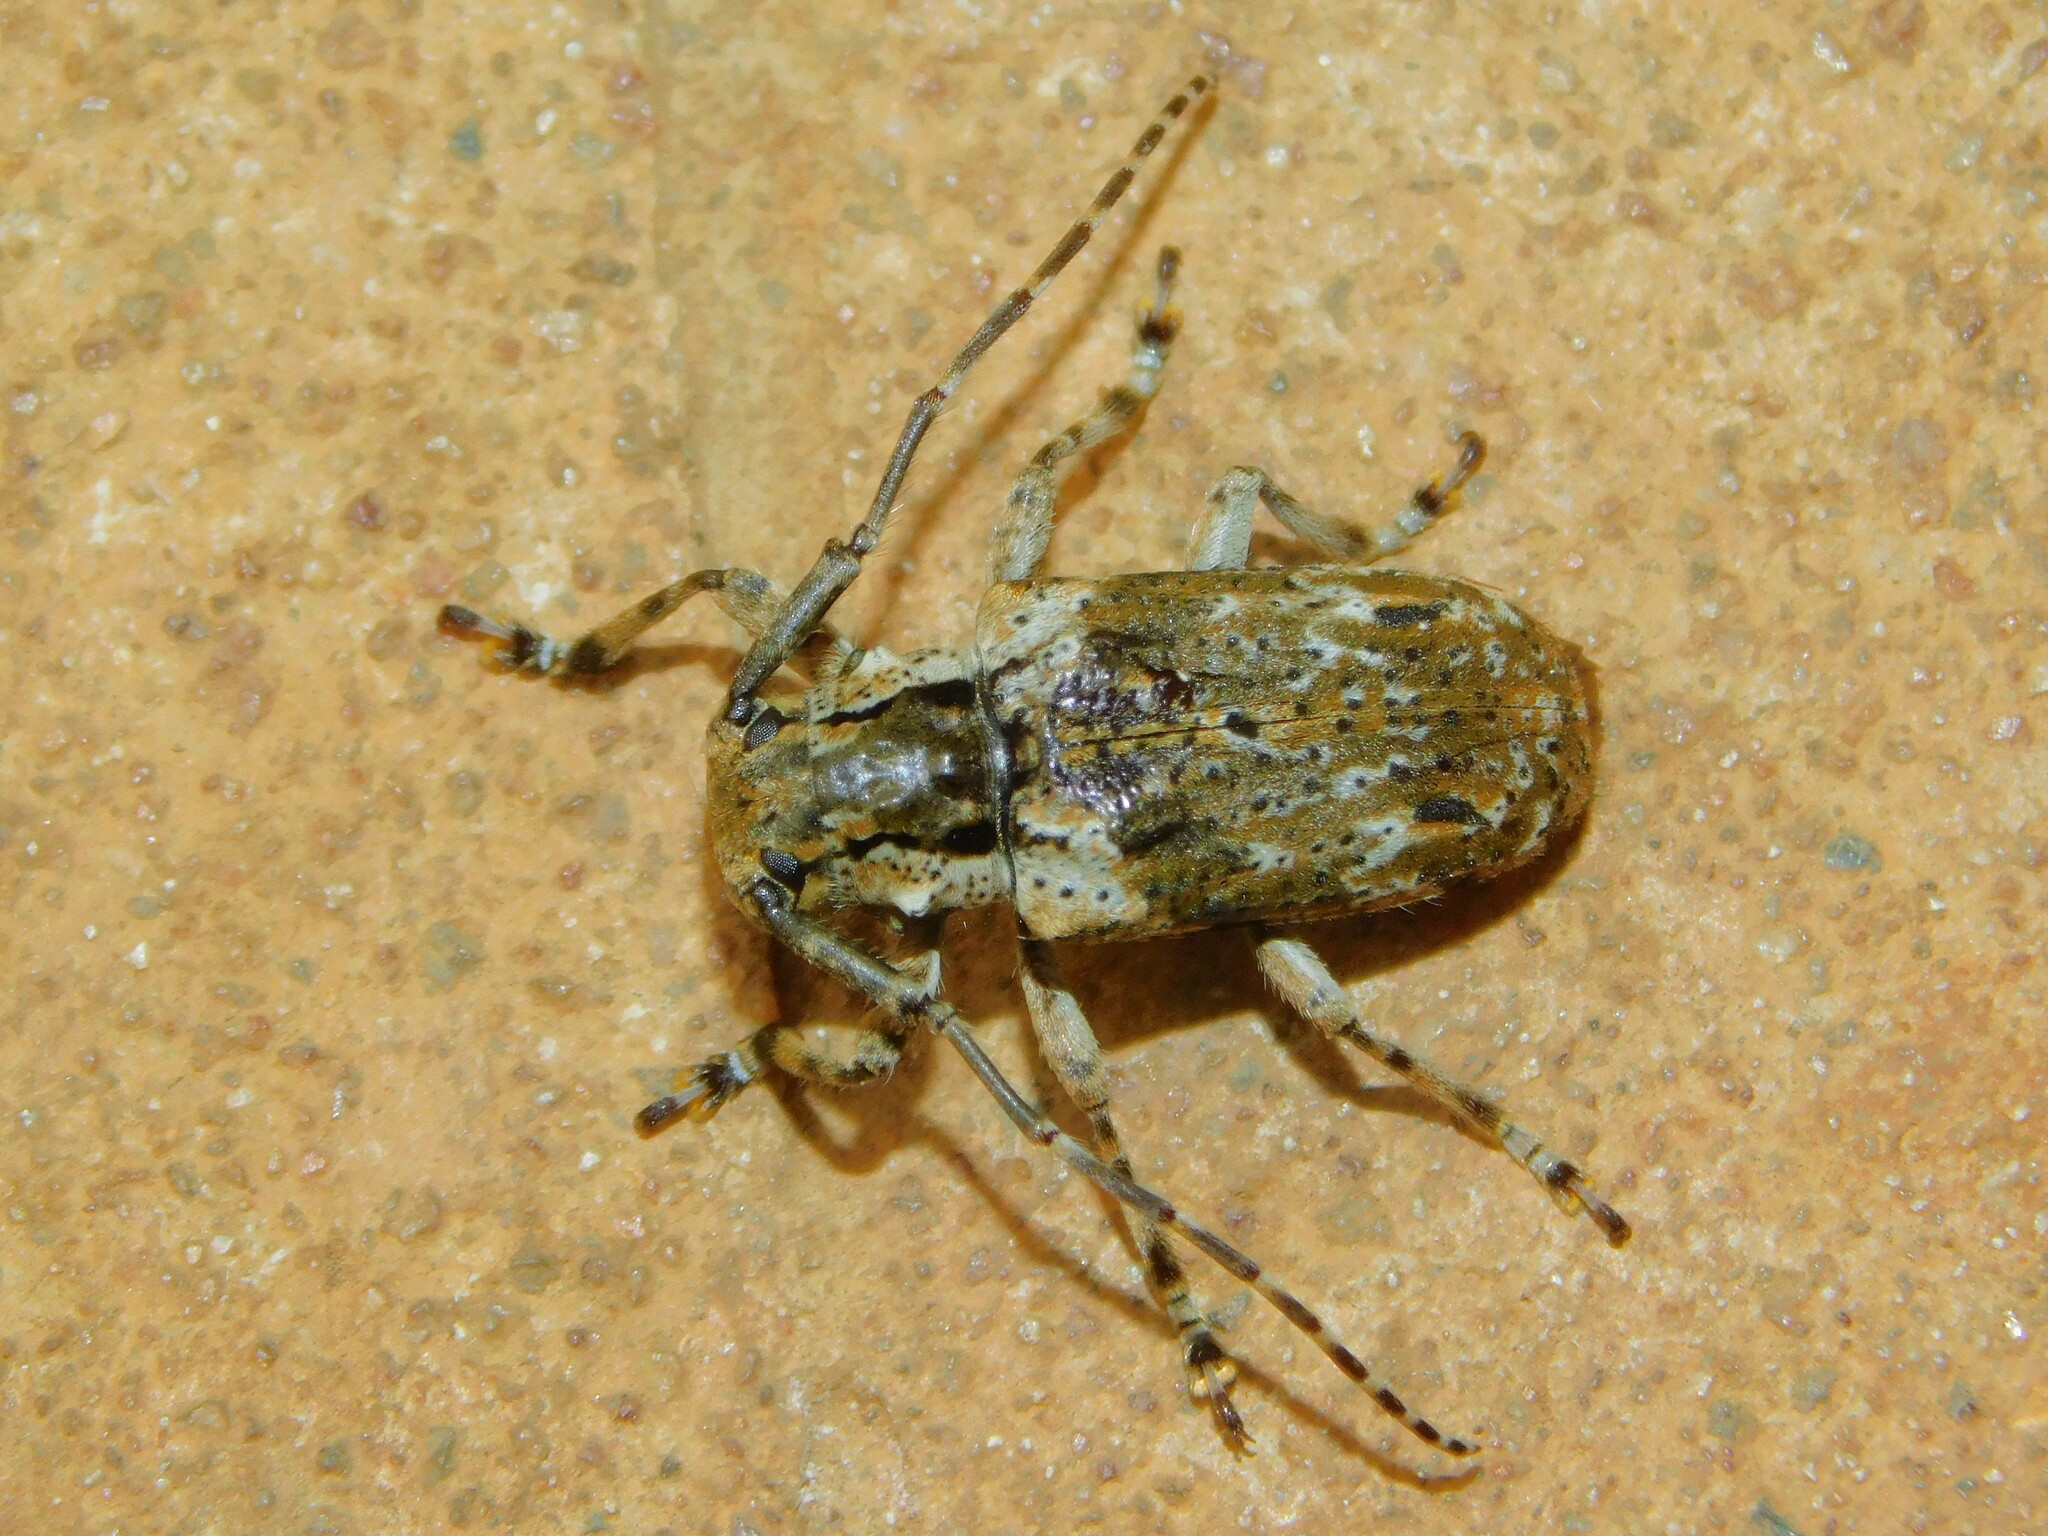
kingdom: Animalia
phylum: Arthropoda
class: Insecta
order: Coleoptera
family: Cerambycidae
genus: Coptops
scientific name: Coptops aedificator
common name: Long-horned beetle
